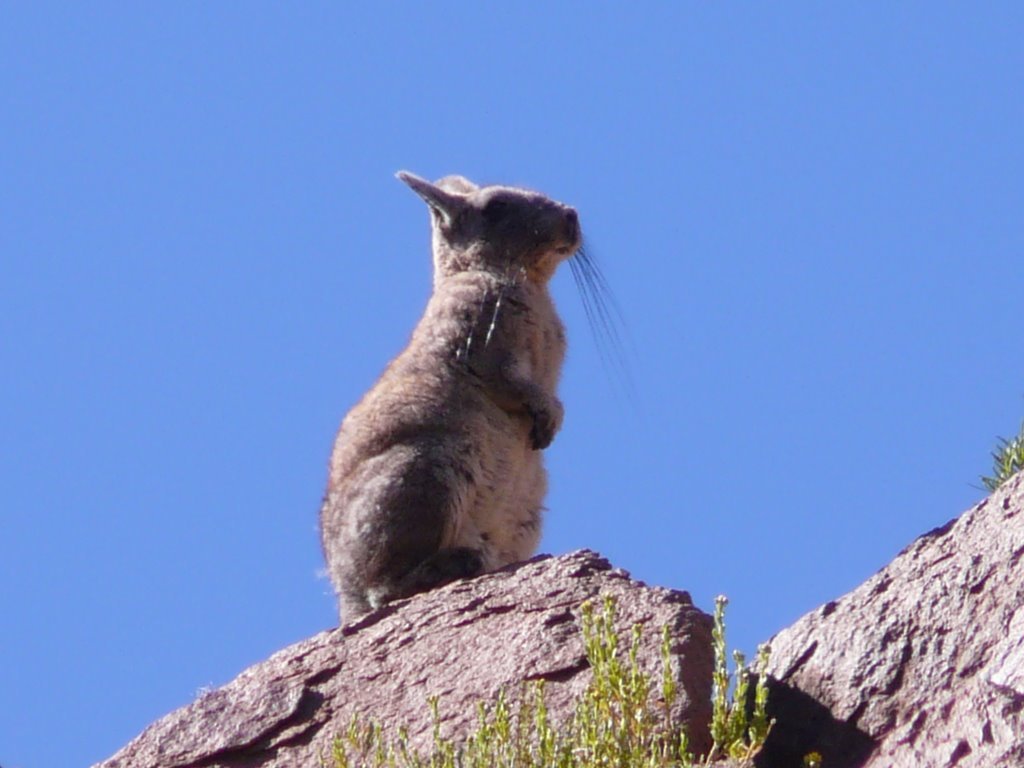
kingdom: Animalia
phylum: Chordata
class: Mammalia
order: Rodentia
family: Chinchillidae
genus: Lagidium
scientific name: Lagidium viscacia
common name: Southern viscacha
